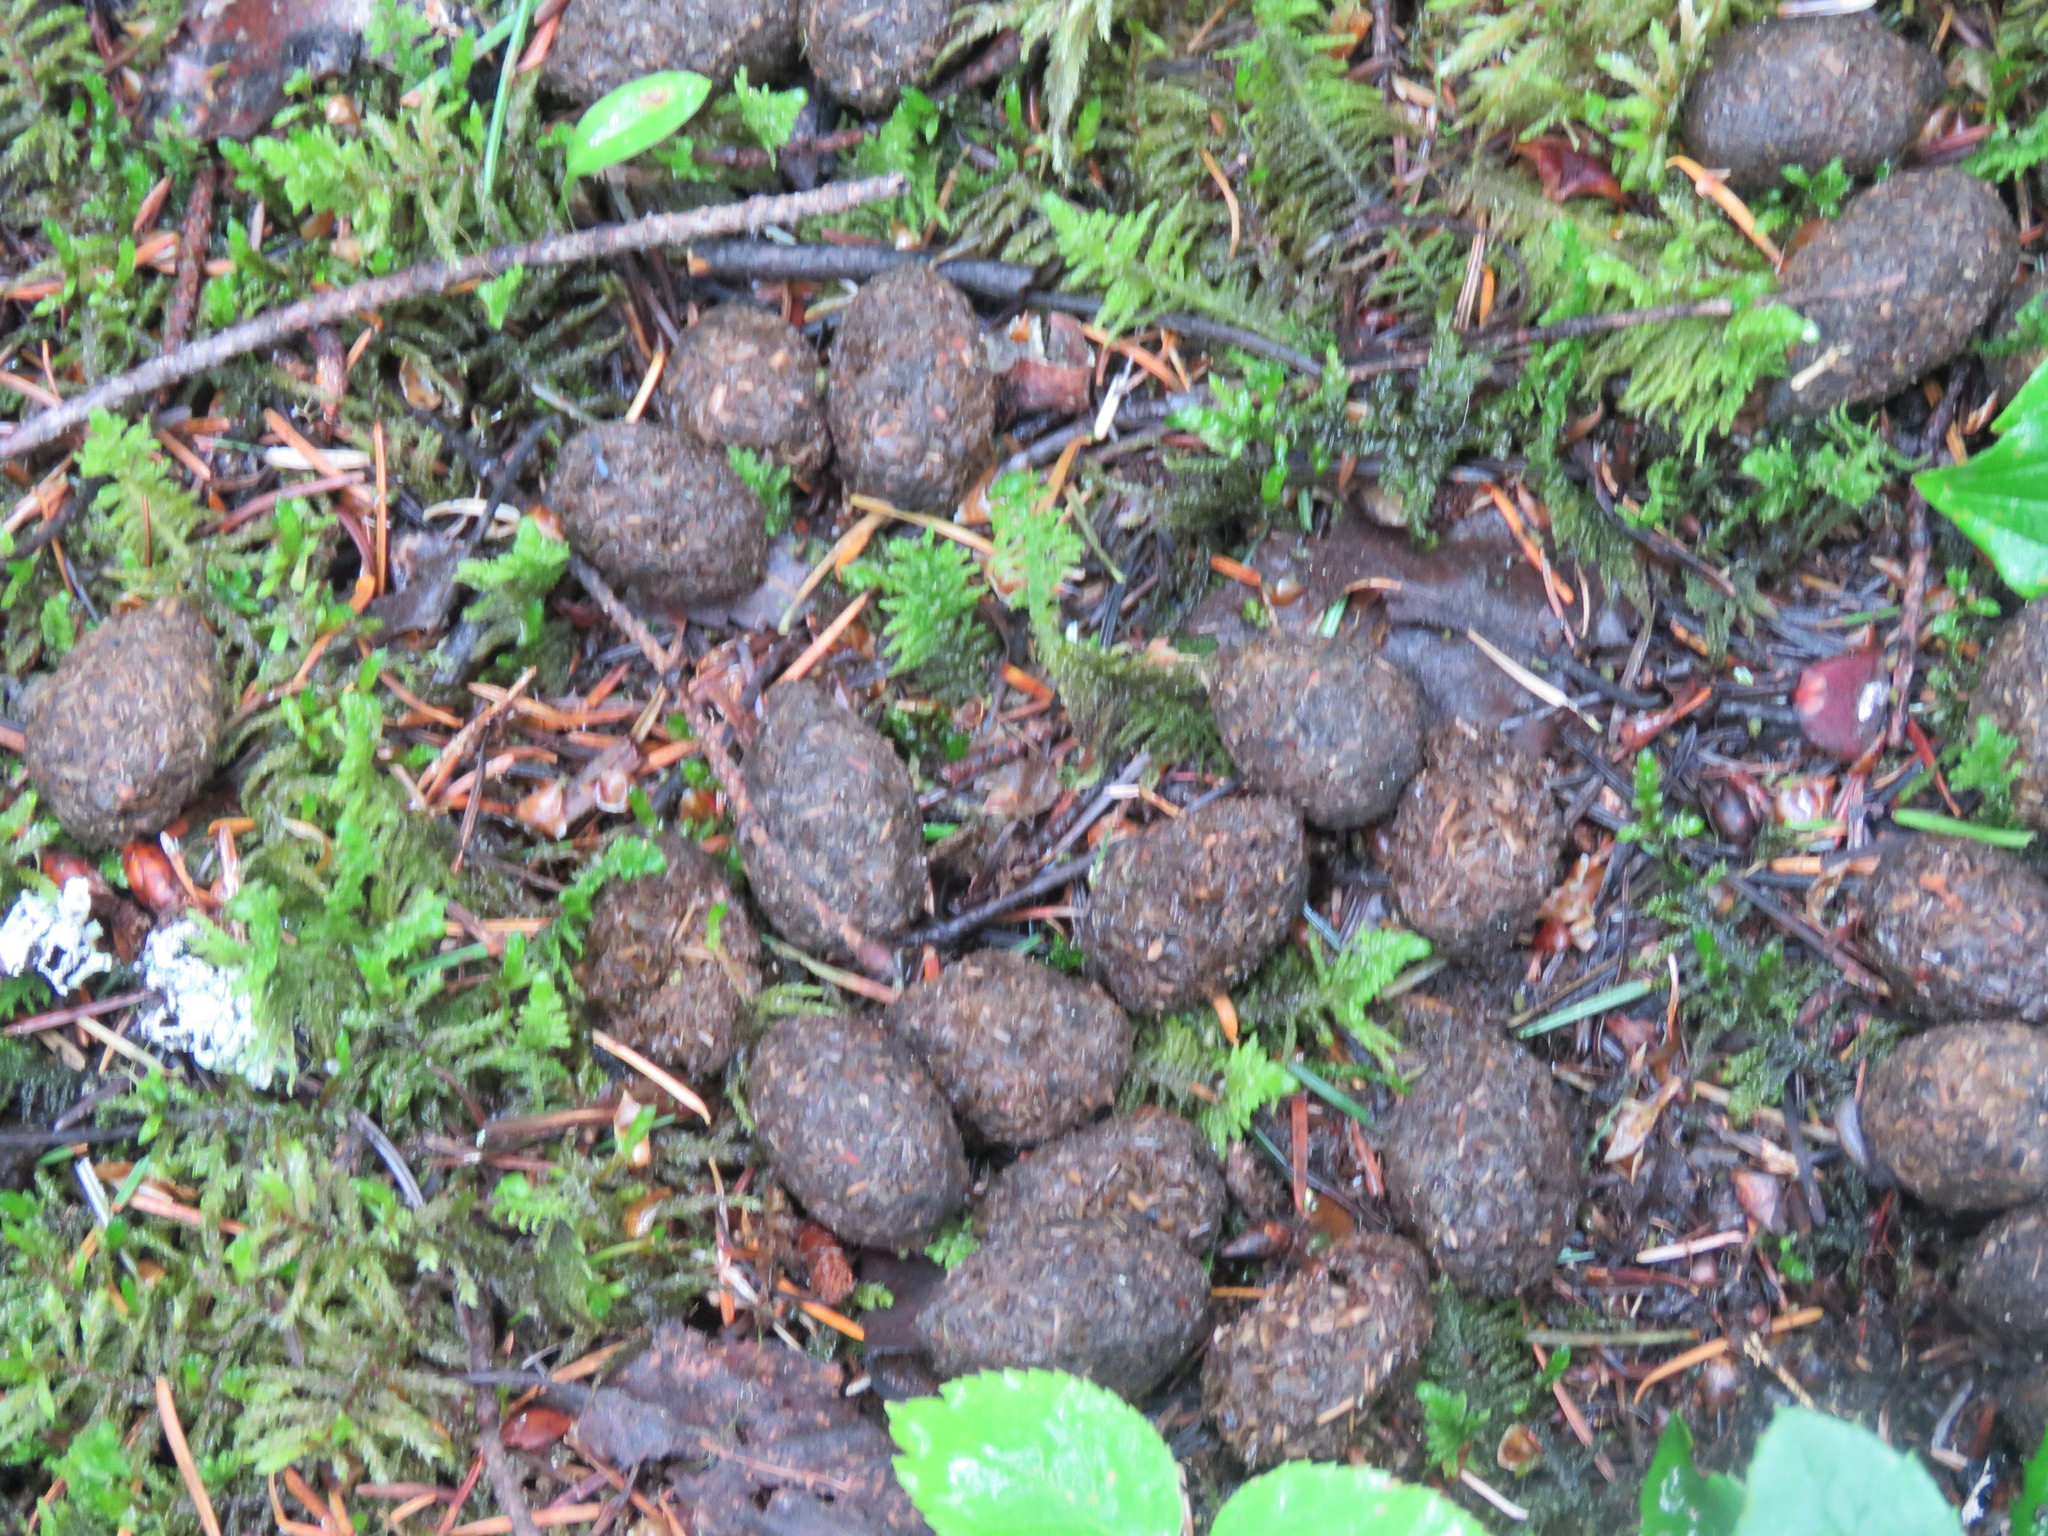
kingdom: Animalia
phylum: Chordata
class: Mammalia
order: Artiodactyla
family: Cervidae
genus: Alces
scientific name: Alces alces
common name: Moose
